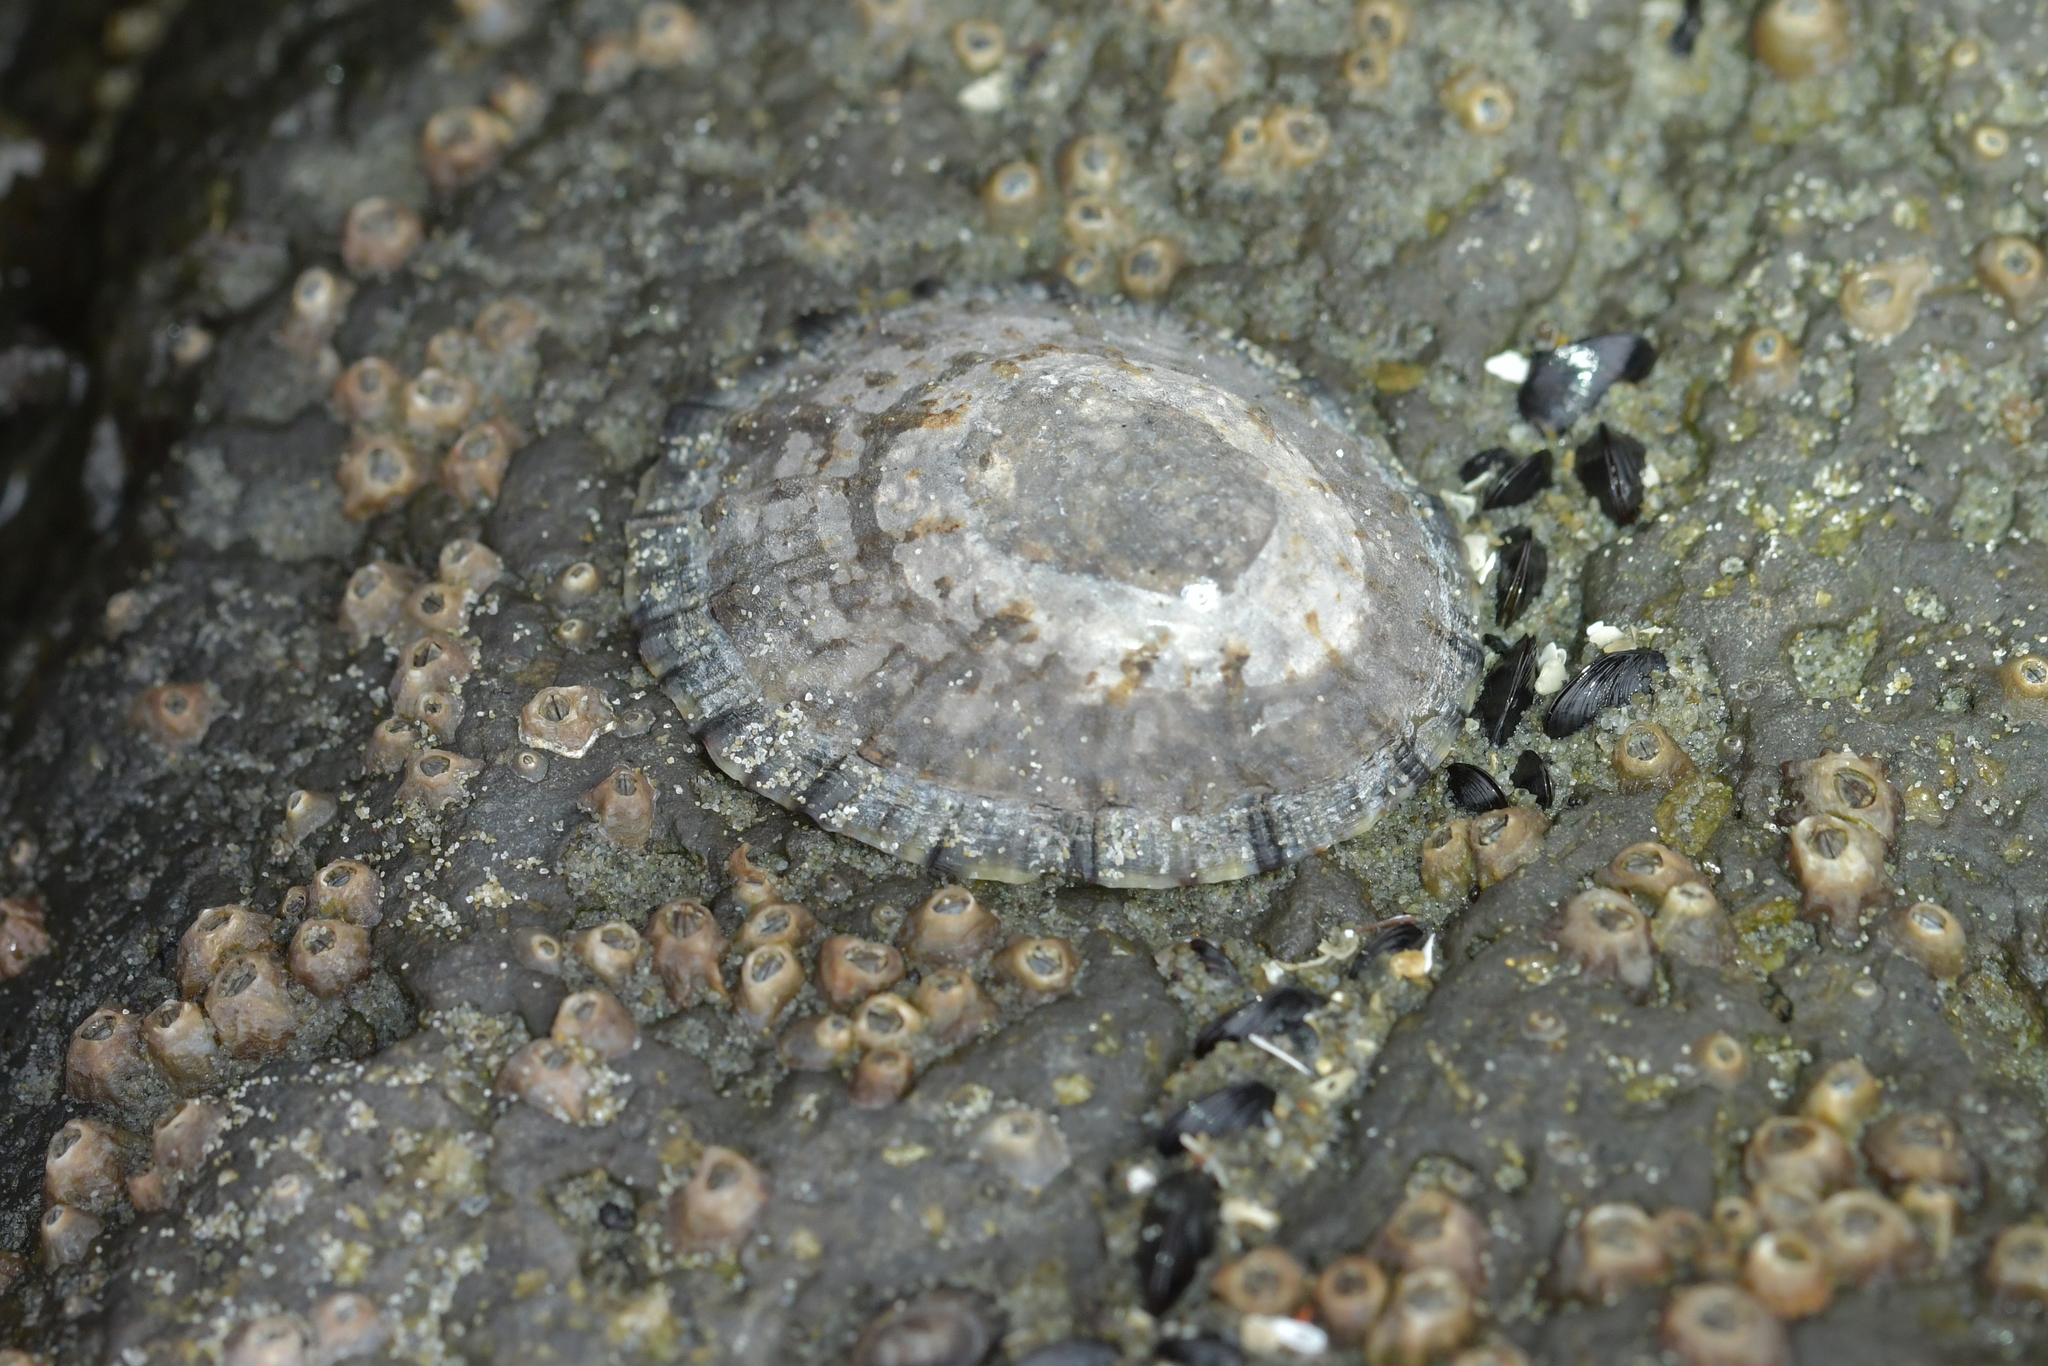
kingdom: Animalia
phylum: Mollusca
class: Gastropoda
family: Nacellidae
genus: Cellana
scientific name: Cellana radians
